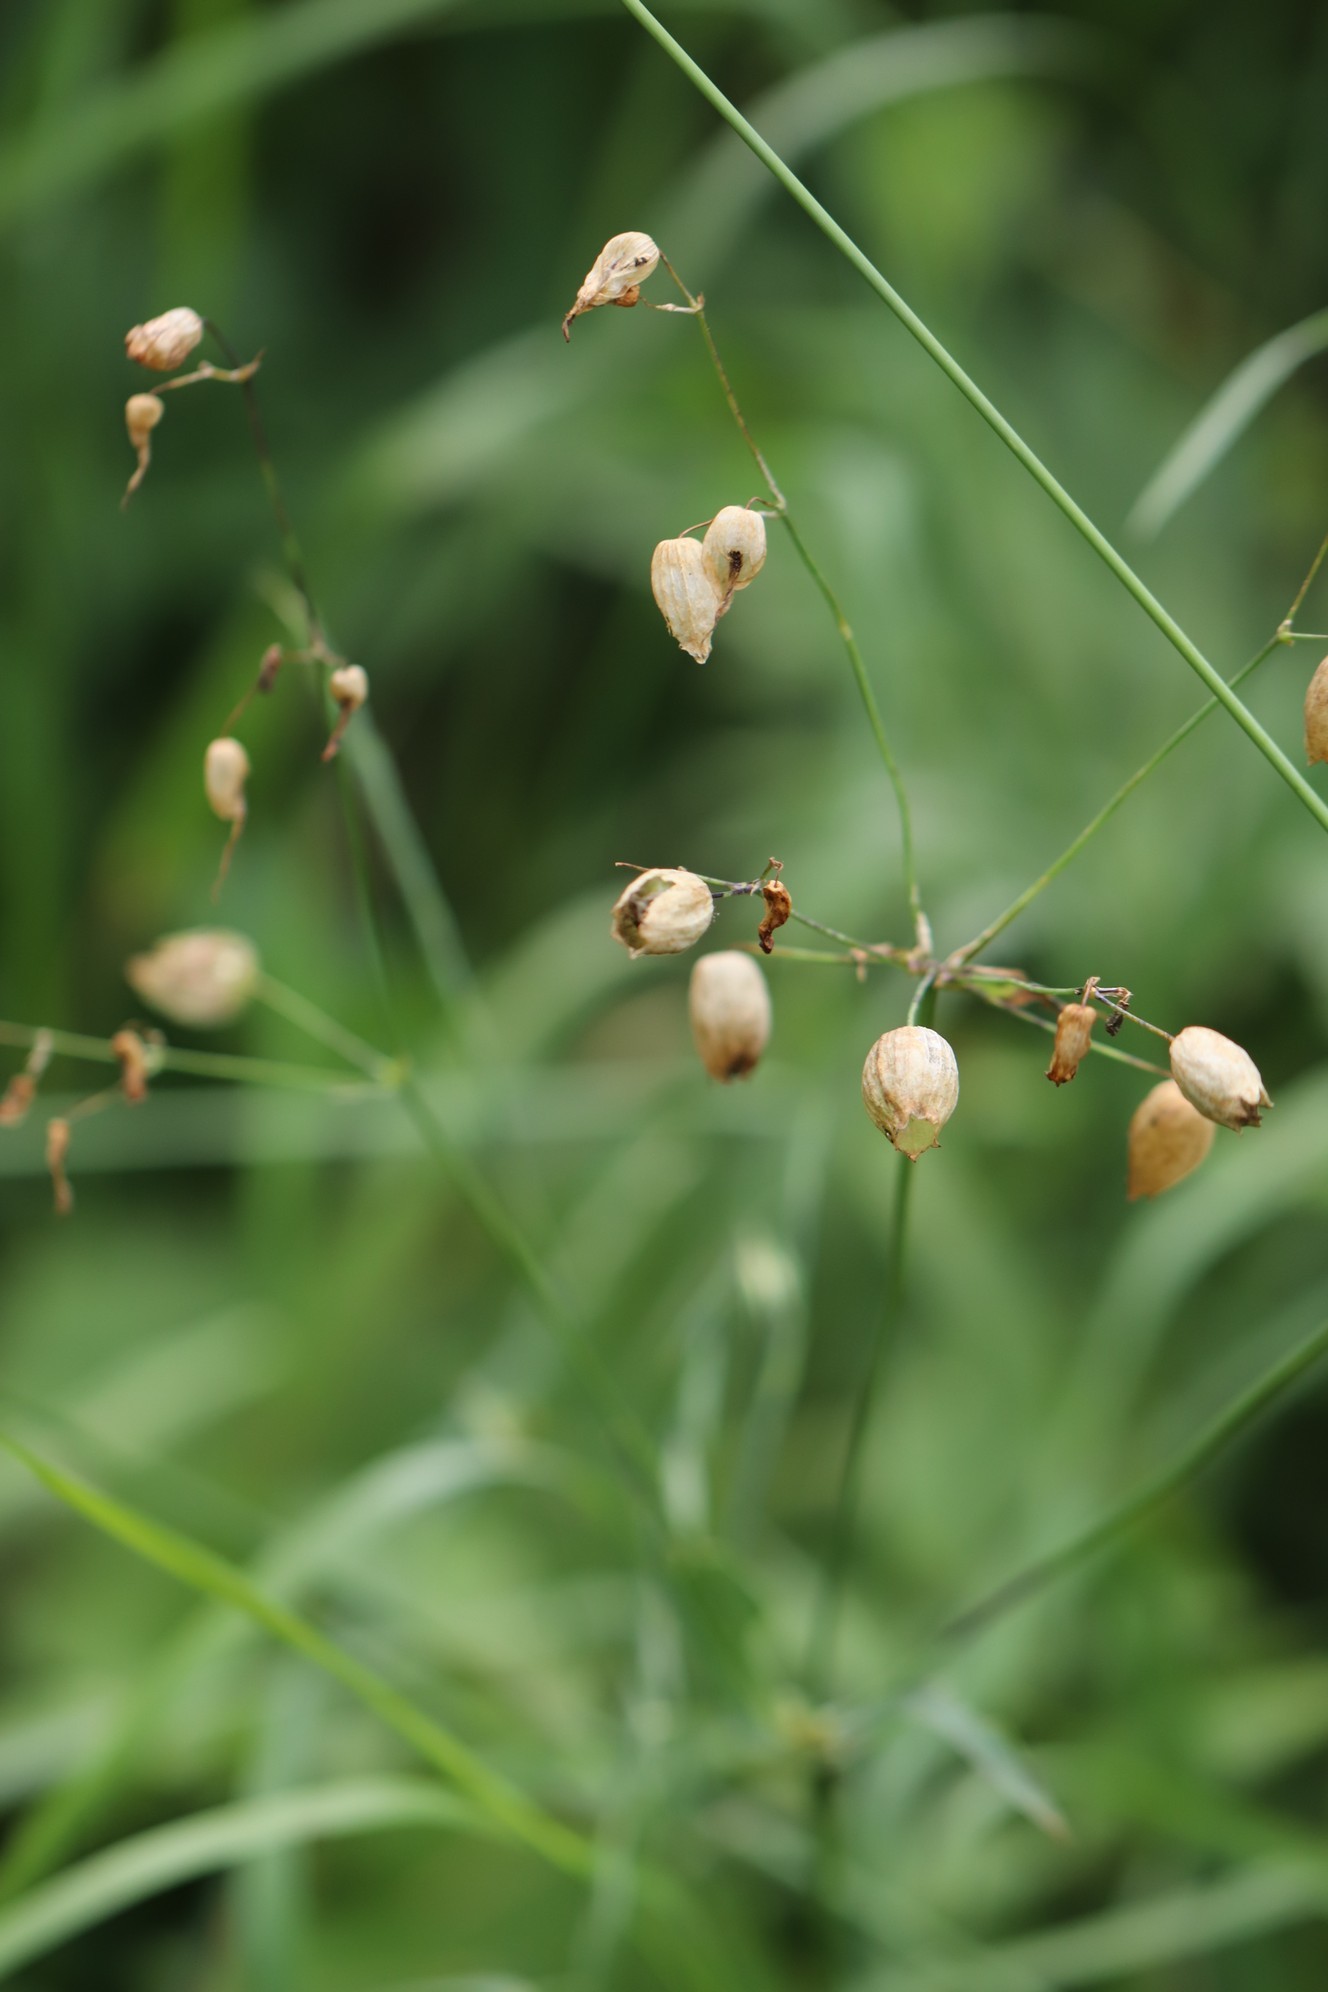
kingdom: Plantae
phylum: Tracheophyta
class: Magnoliopsida
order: Caryophyllales
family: Caryophyllaceae
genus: Silene
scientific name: Silene vulgaris
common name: Bladder campion
